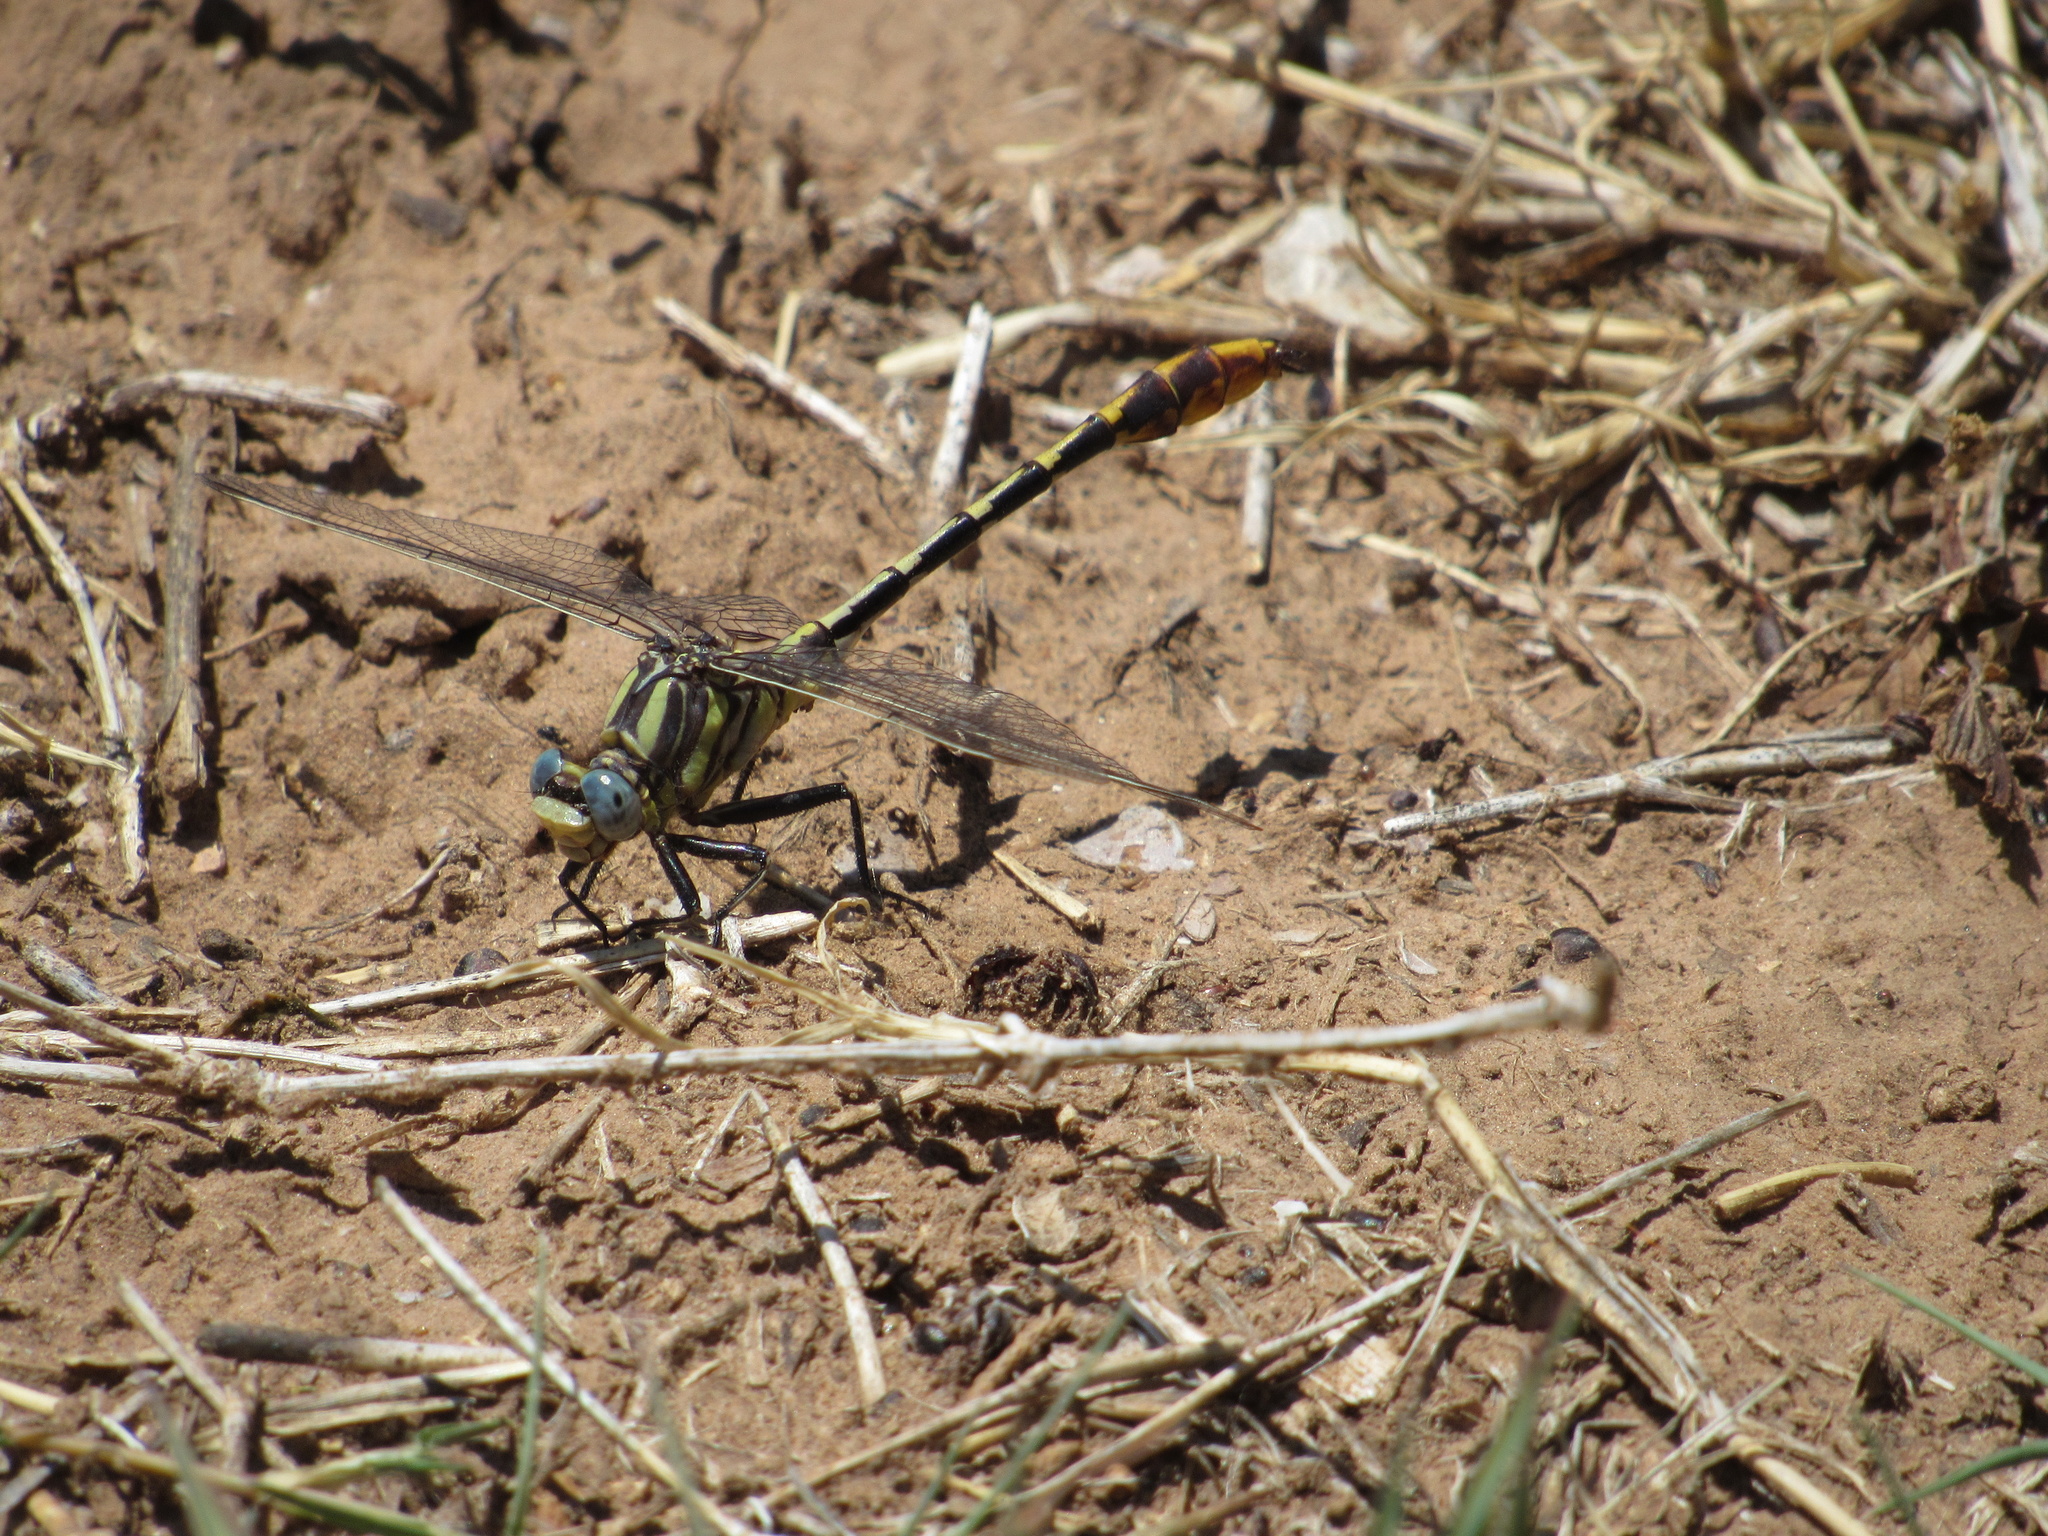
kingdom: Animalia
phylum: Arthropoda
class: Insecta
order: Odonata
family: Gomphidae
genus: Phanogomphus
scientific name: Phanogomphus militaris
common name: Sulphur-tipped clubtail
